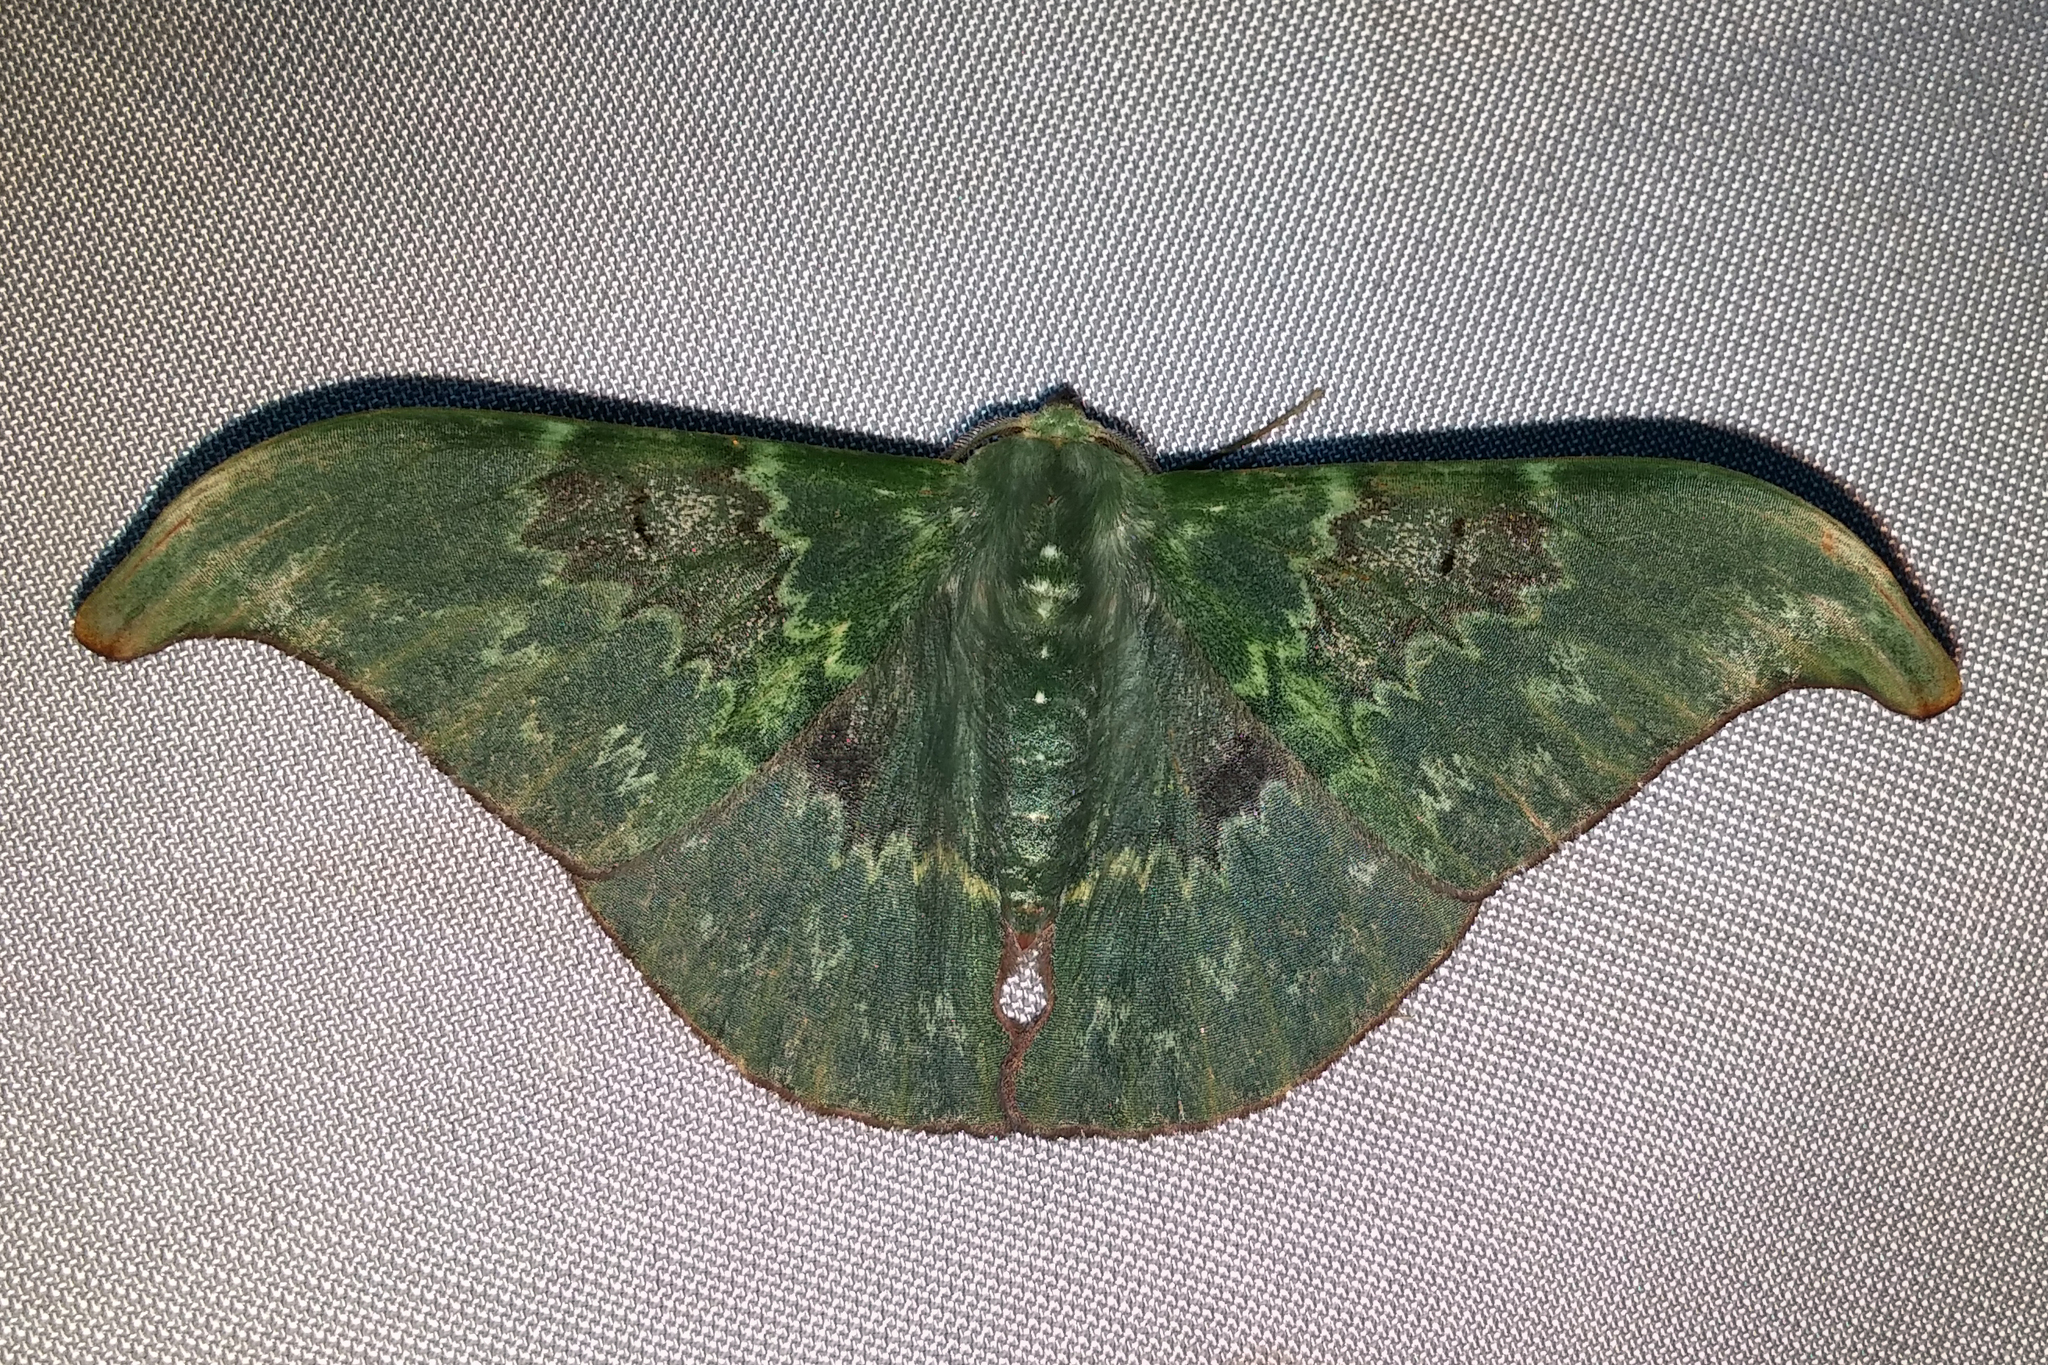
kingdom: Animalia
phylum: Arthropoda
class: Insecta
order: Lepidoptera
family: Geometridae
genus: Tanaorhinus
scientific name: Tanaorhinus unipuncta
